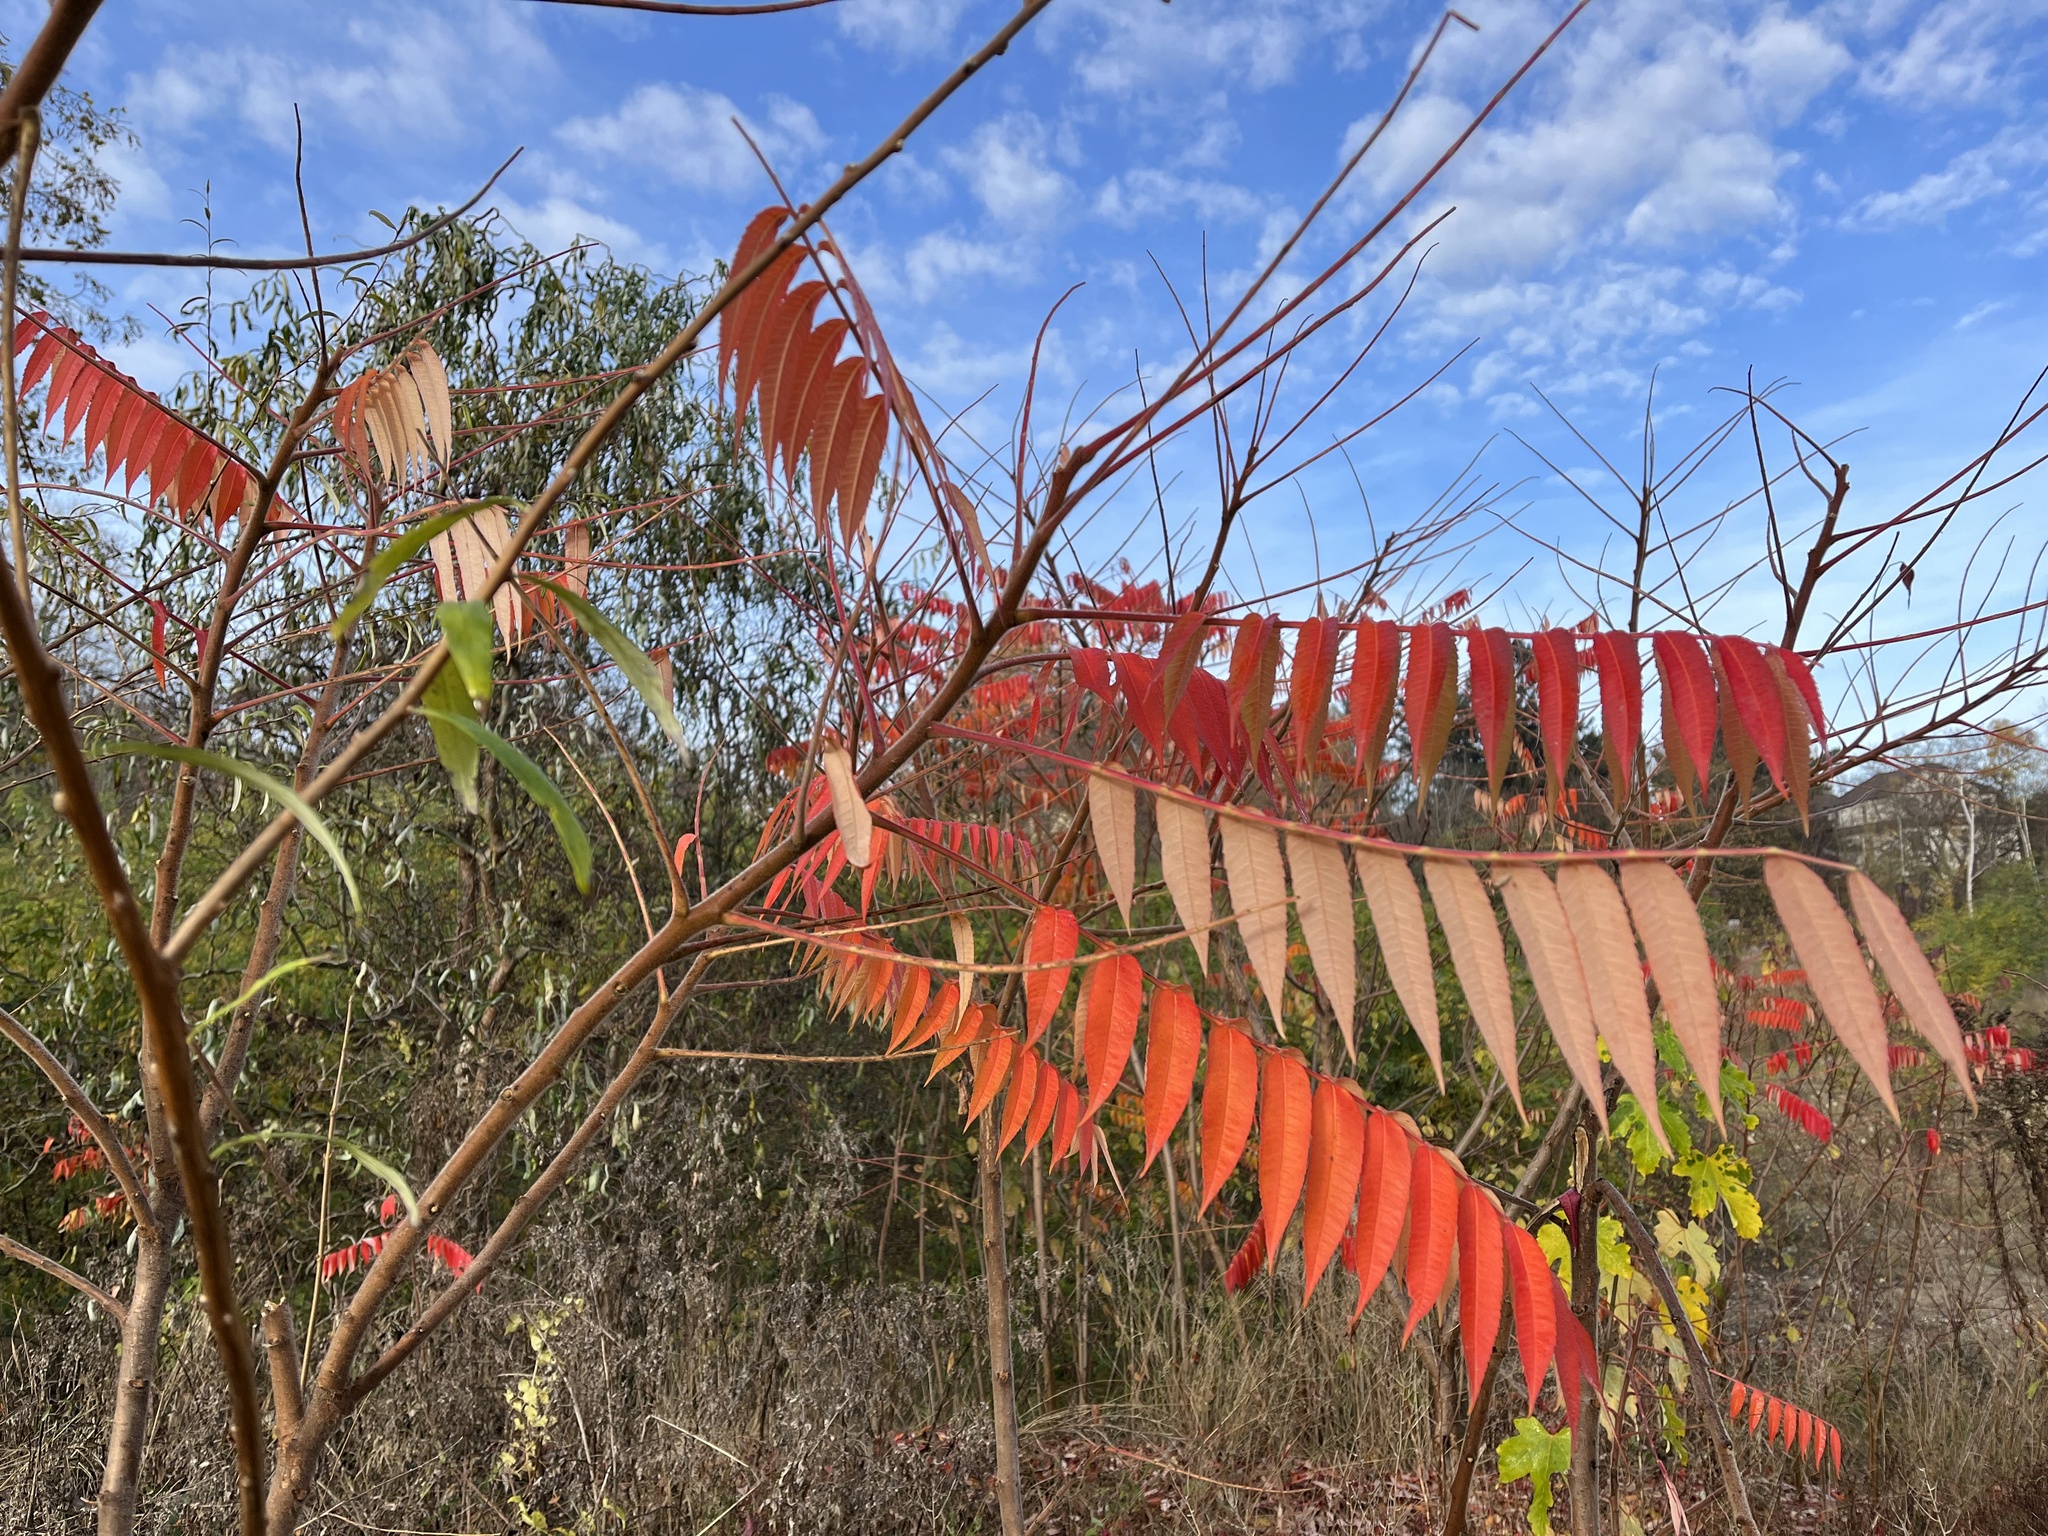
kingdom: Plantae
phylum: Tracheophyta
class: Magnoliopsida
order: Sapindales
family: Anacardiaceae
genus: Rhus
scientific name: Rhus typhina
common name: Staghorn sumac
